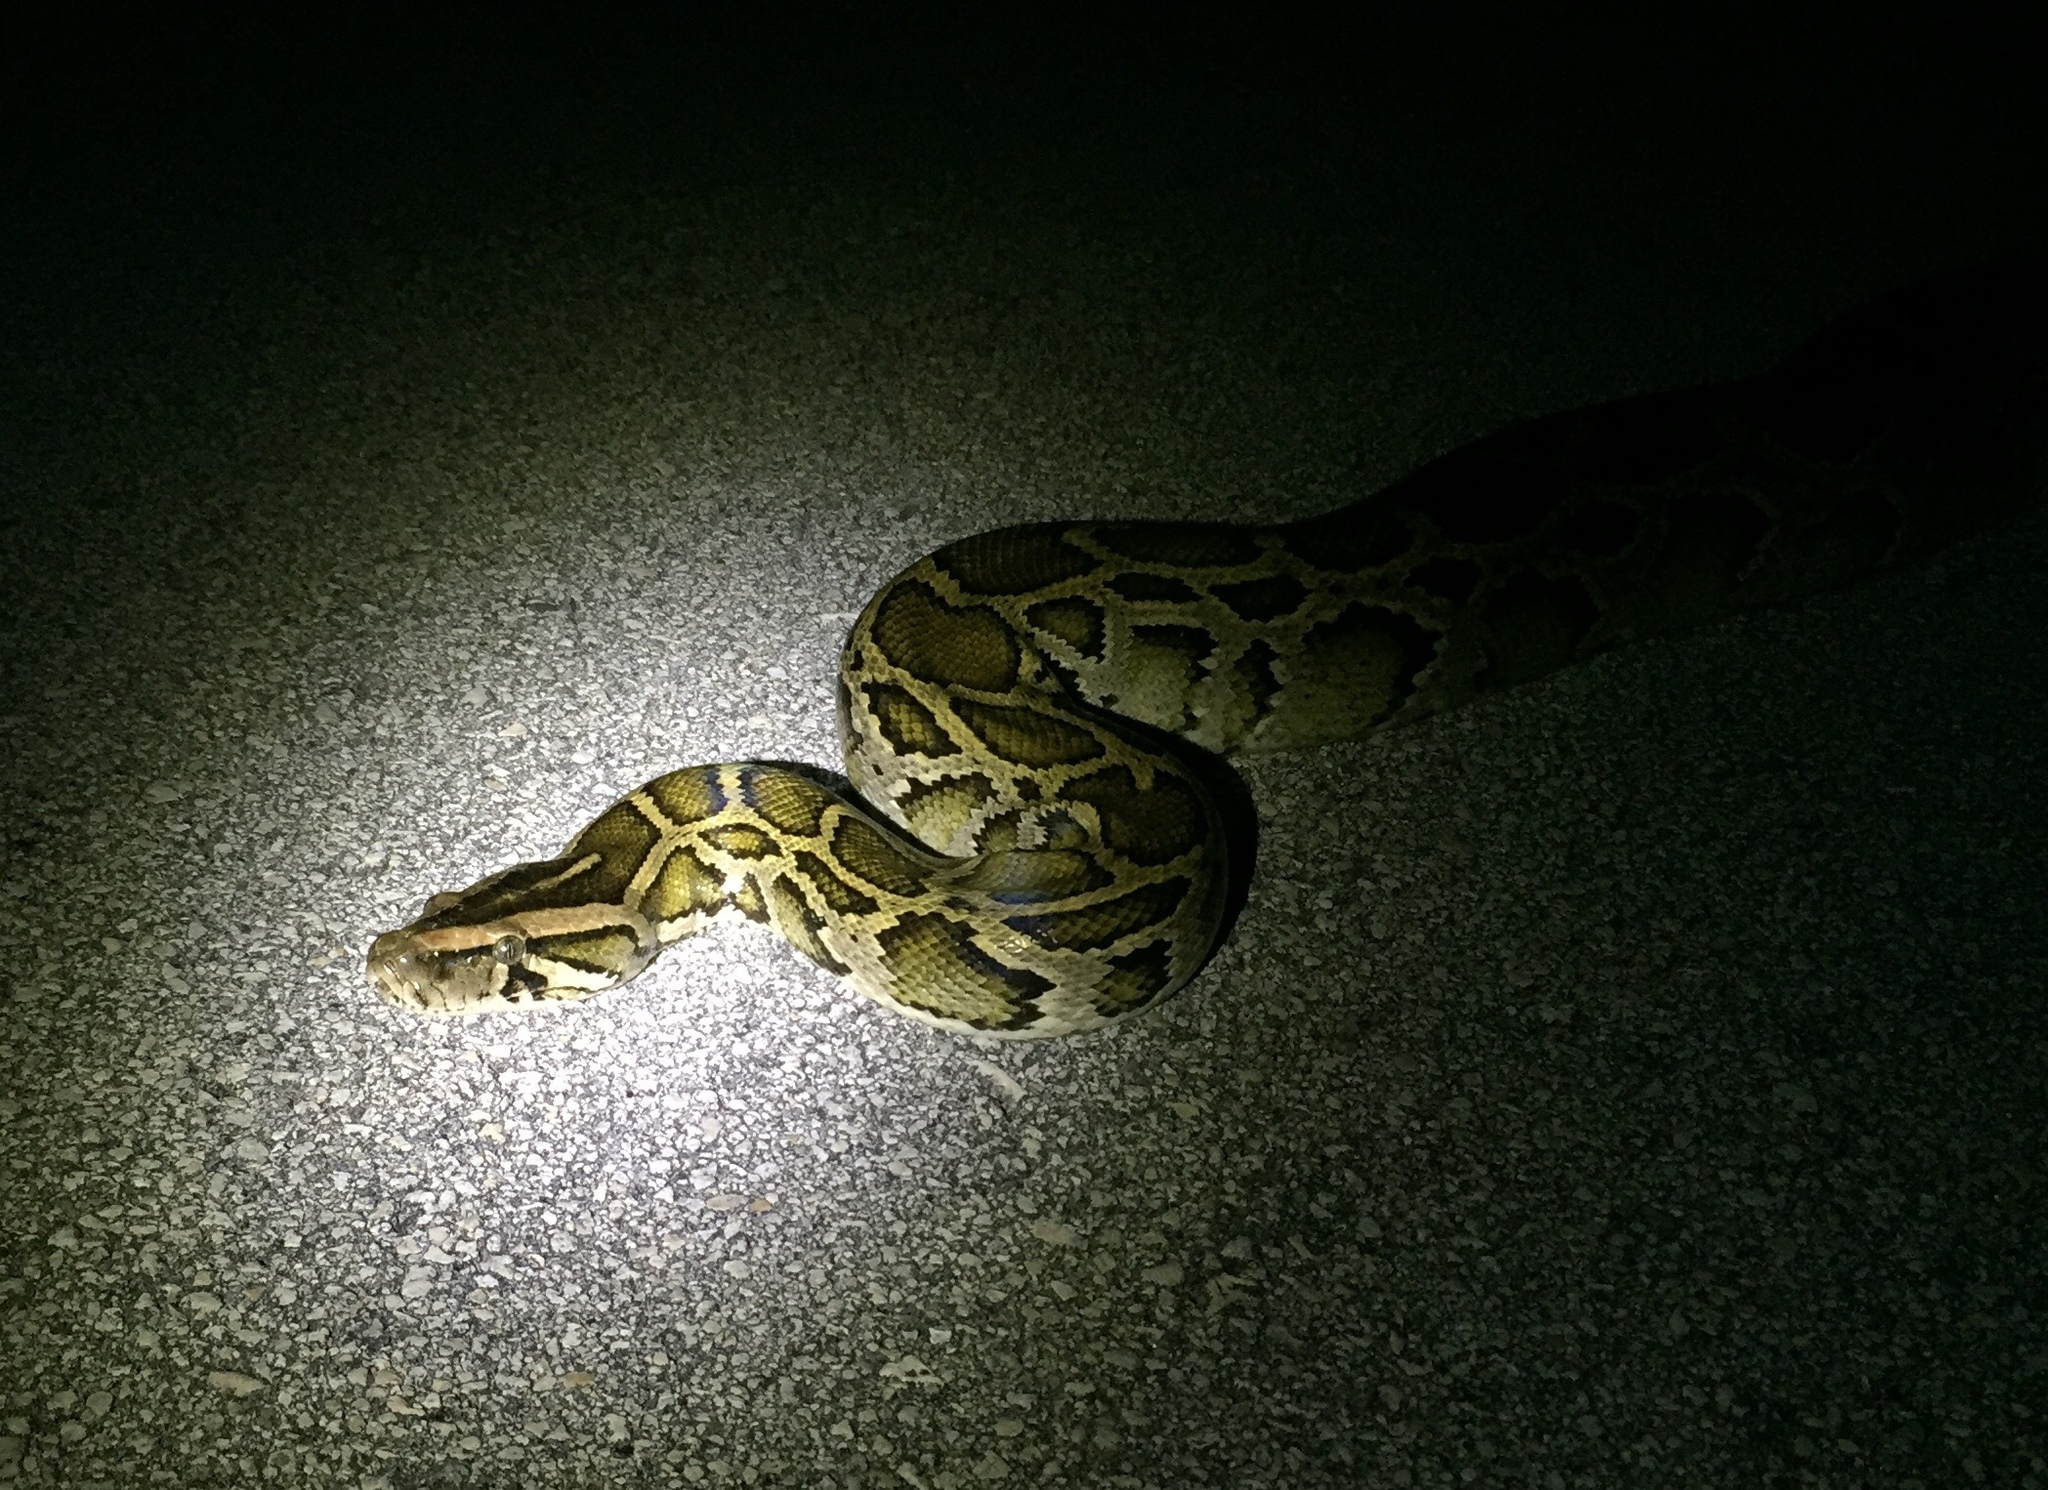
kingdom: Animalia
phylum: Chordata
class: Squamata
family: Pythonidae
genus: Python
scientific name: Python bivittatus
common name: Burmese python
